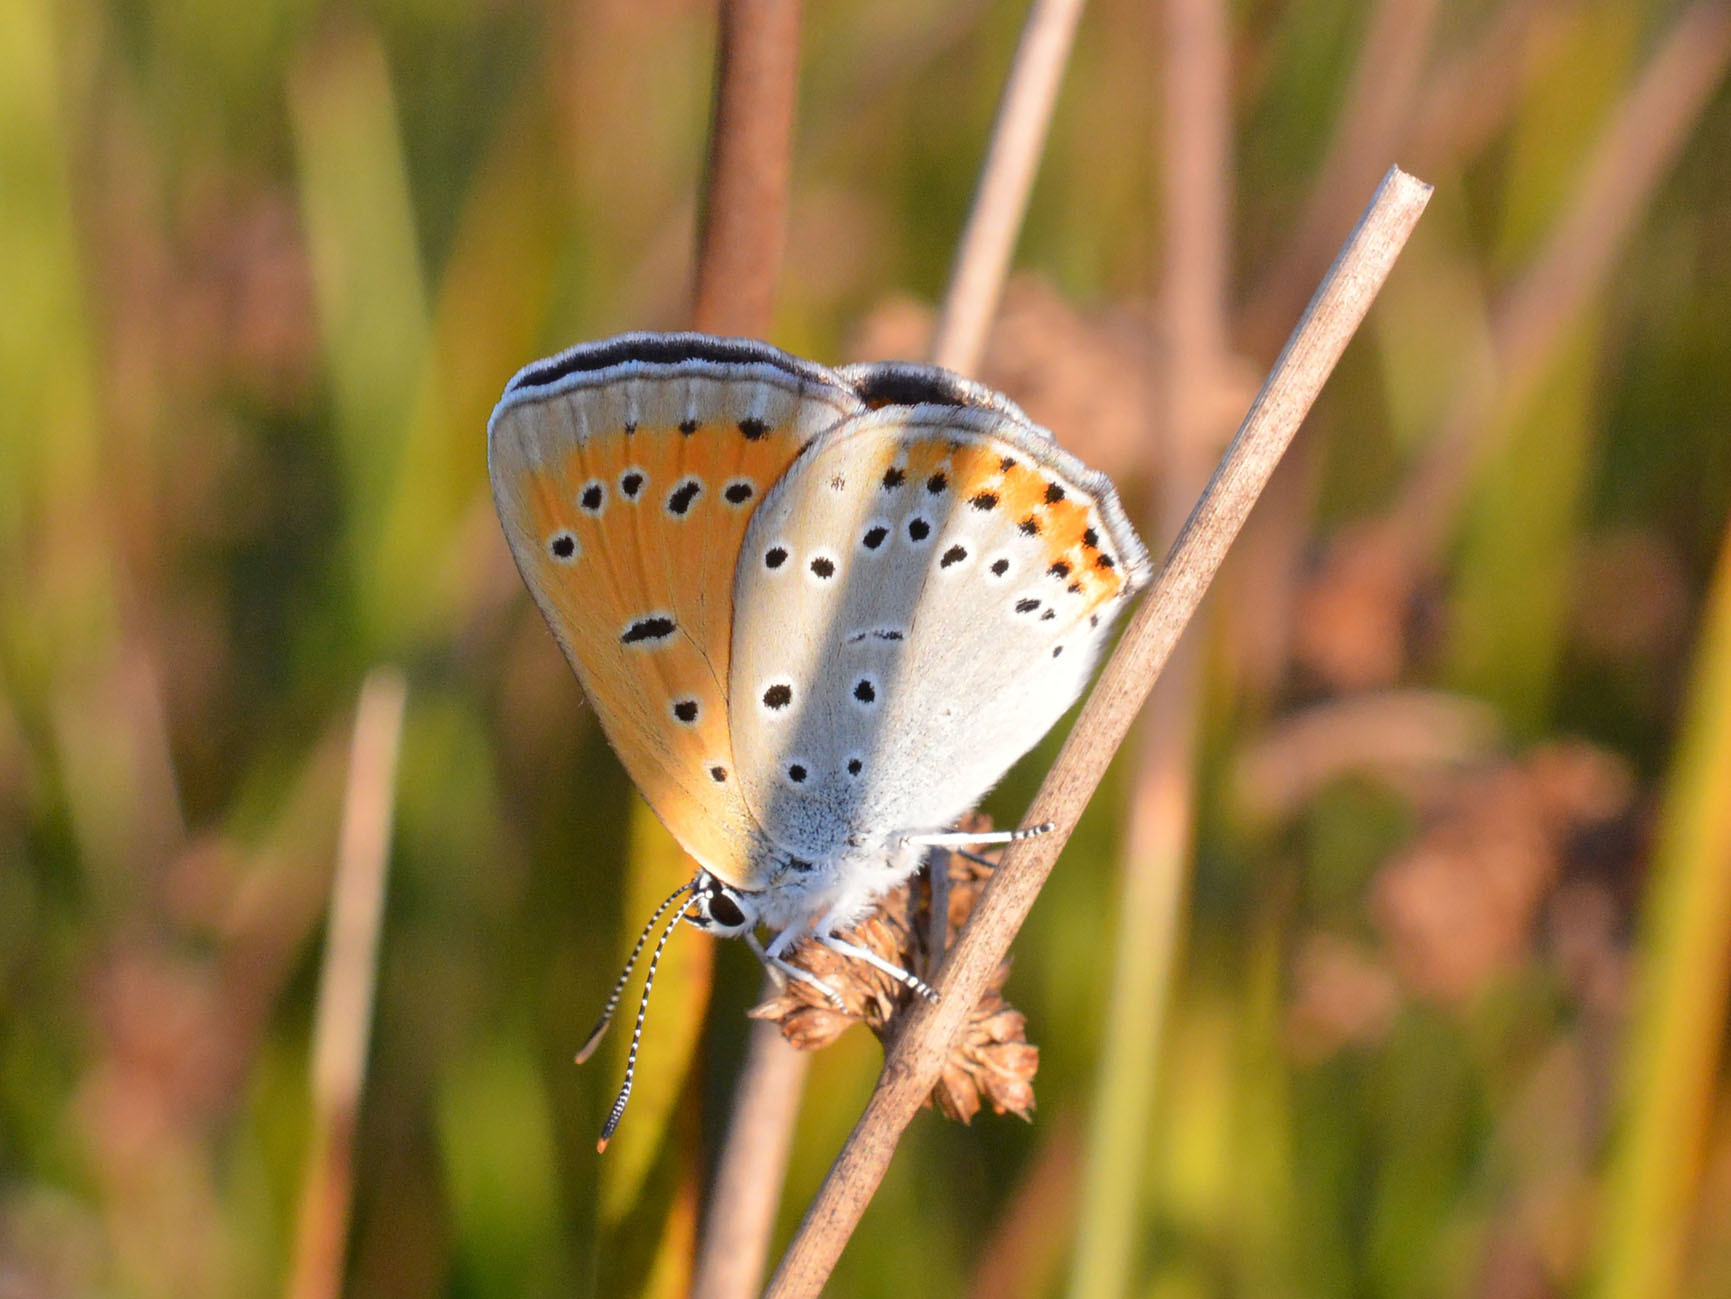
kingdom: Animalia
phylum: Arthropoda
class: Insecta
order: Lepidoptera
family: Lycaenidae
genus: Lycaena
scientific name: Lycaena dispar
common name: Large copper
